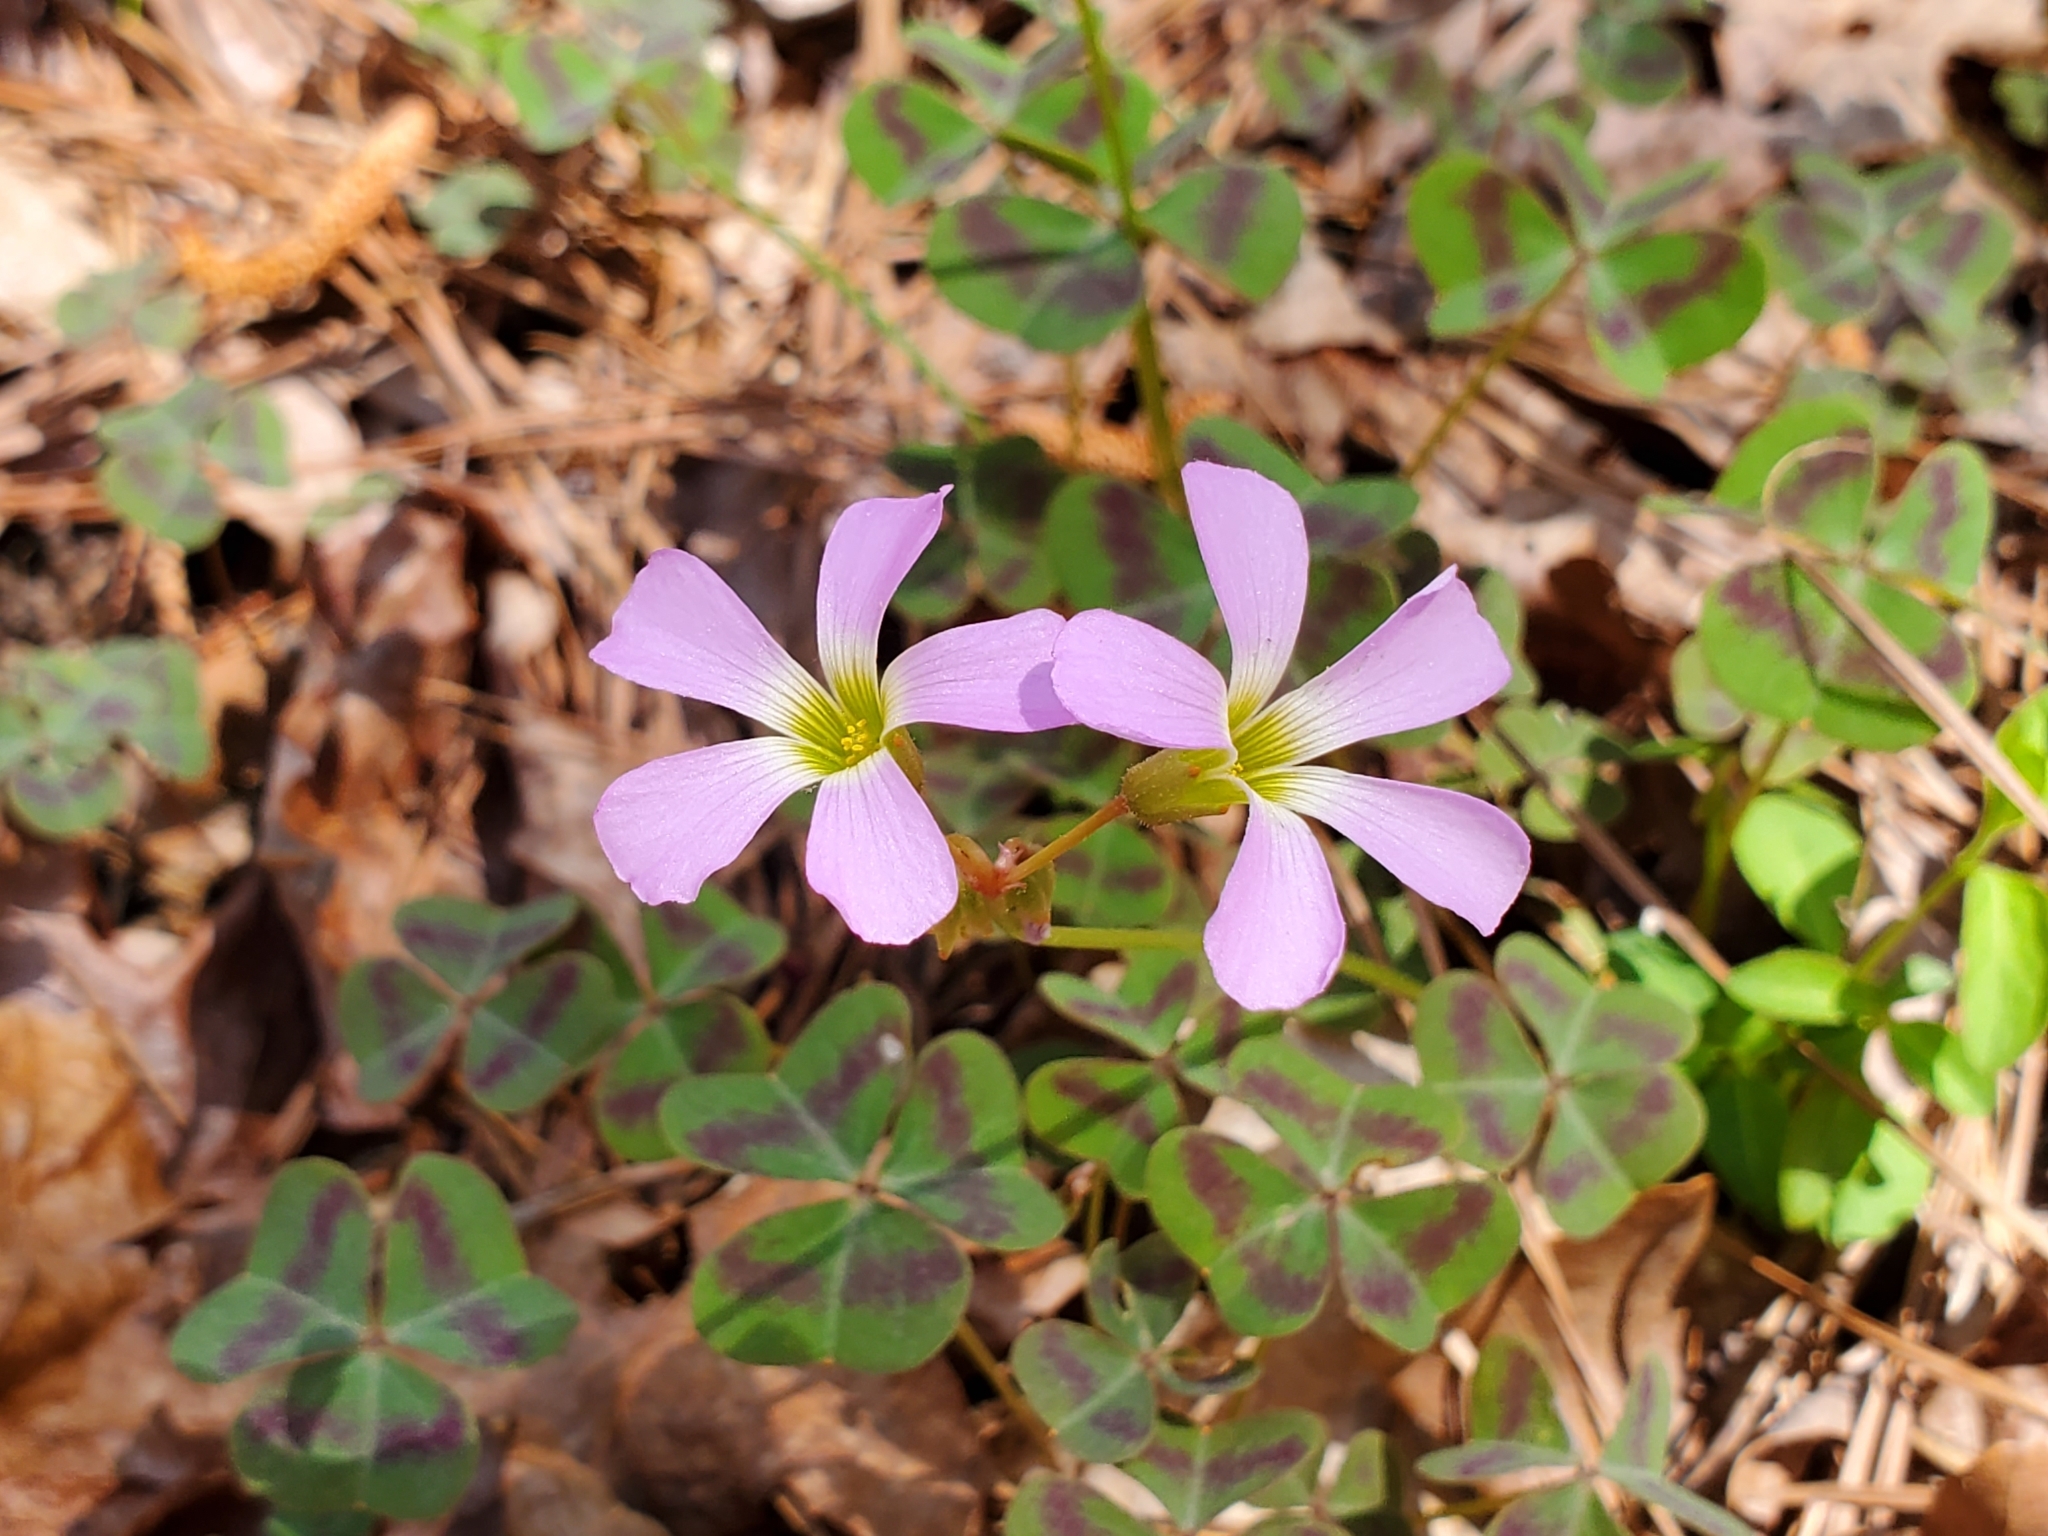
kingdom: Plantae
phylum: Tracheophyta
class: Magnoliopsida
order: Oxalidales
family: Oxalidaceae
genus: Oxalis
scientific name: Oxalis violacea
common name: Violet wood-sorrel
